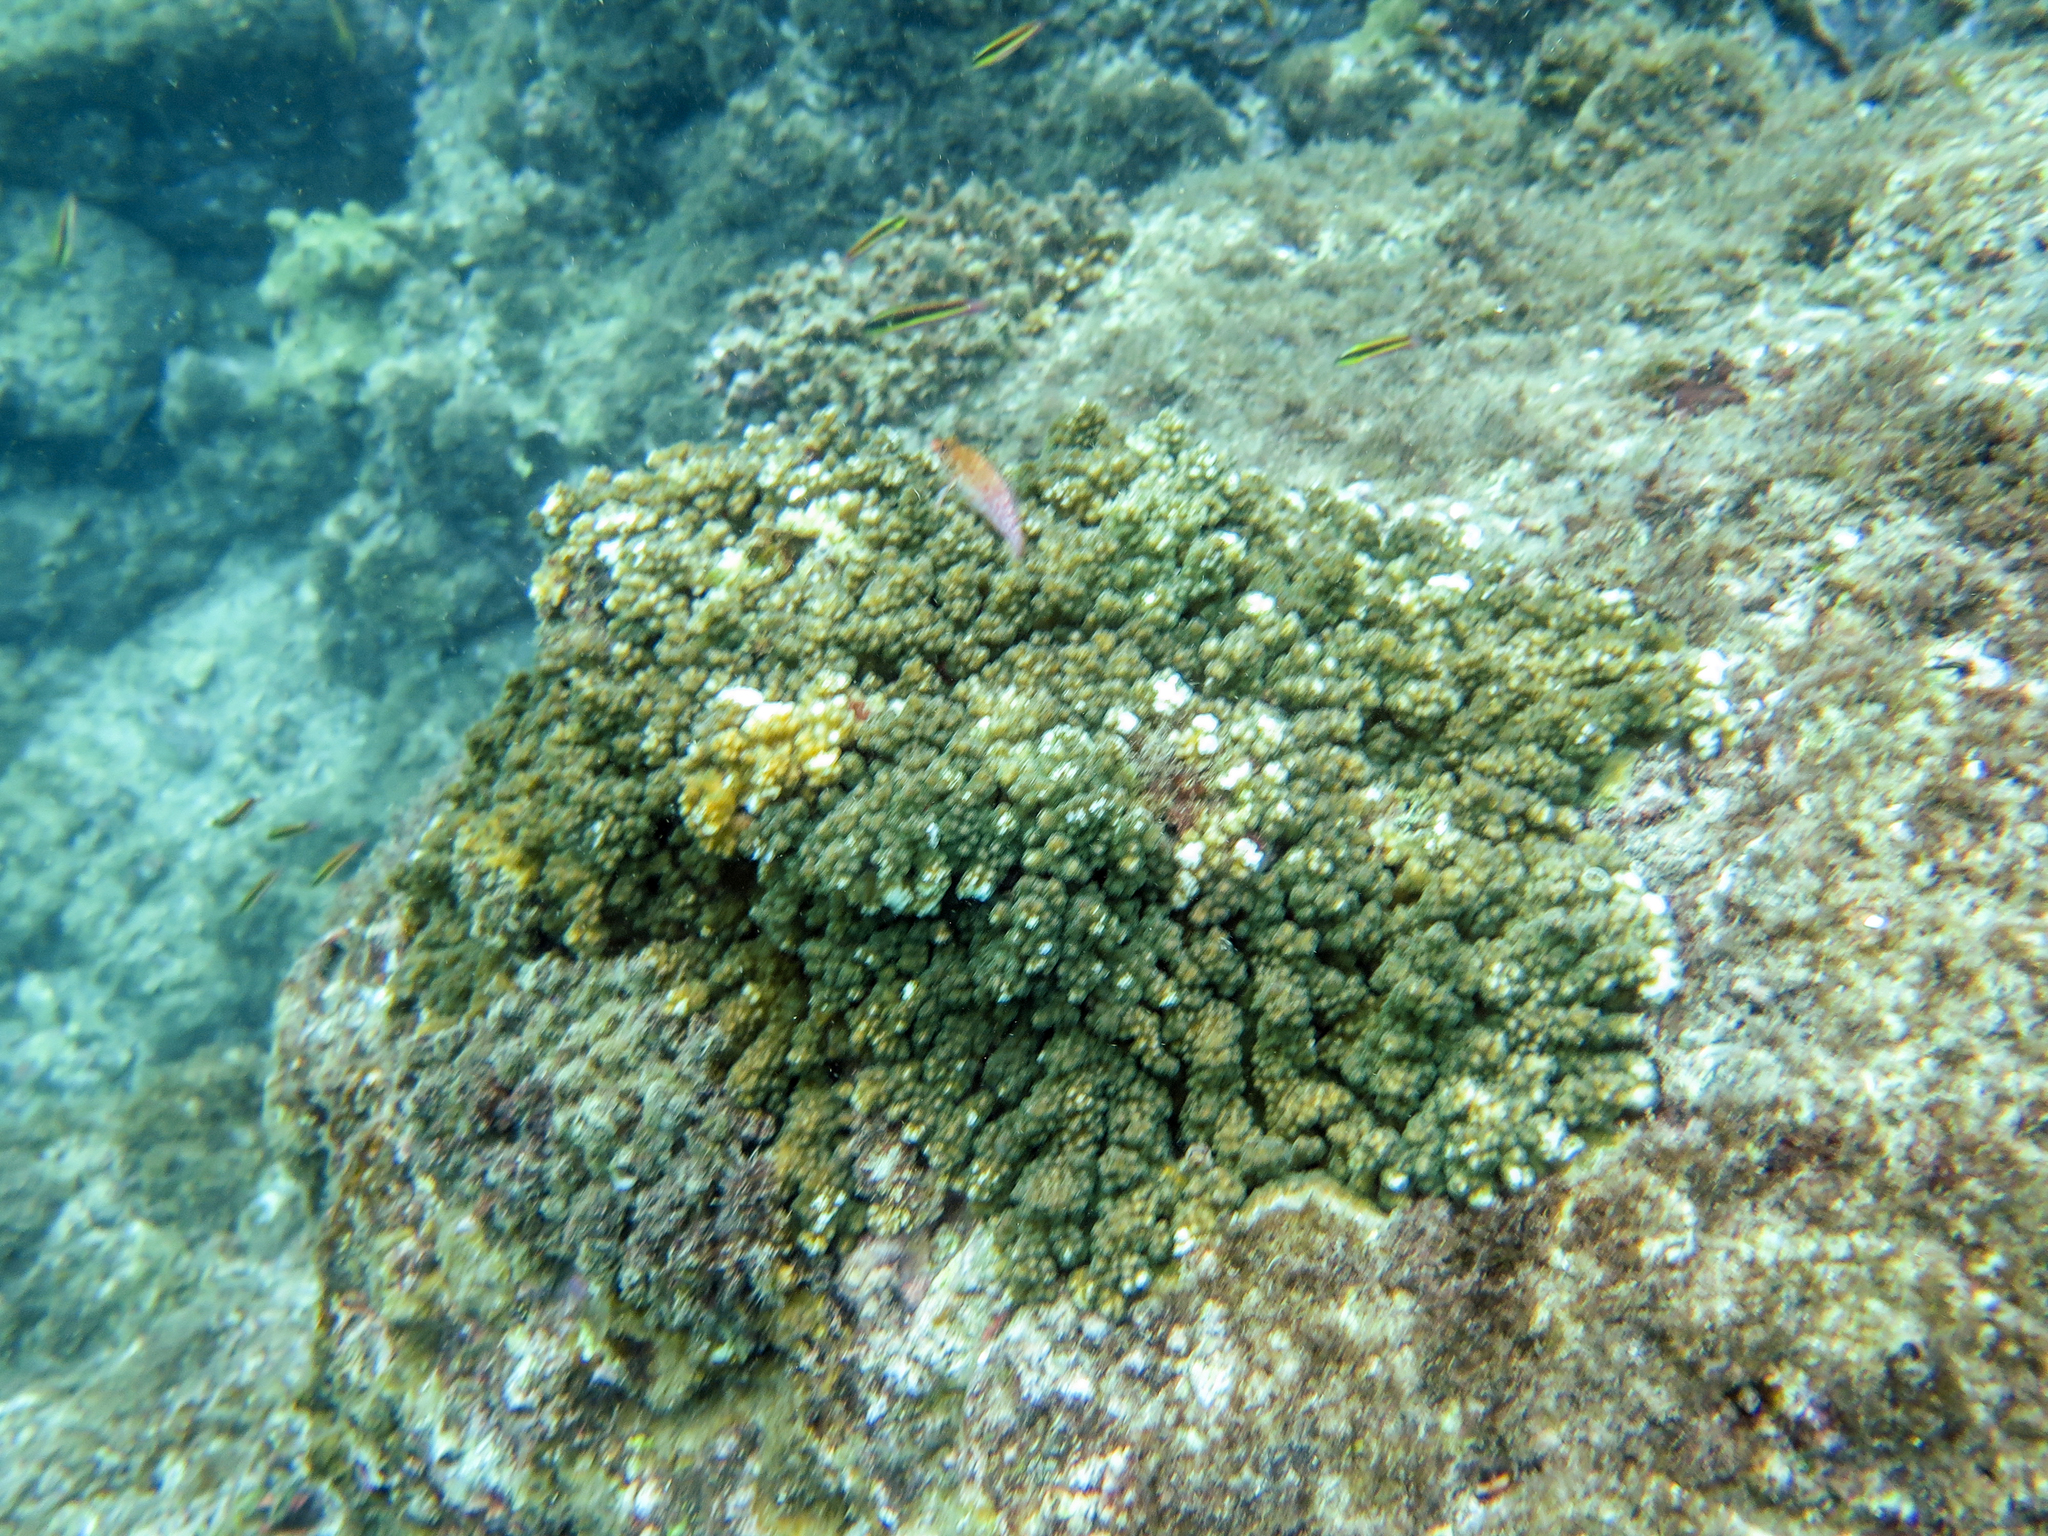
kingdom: Animalia
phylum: Chordata
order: Perciformes
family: Cirrhitidae
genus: Cirrhitichthys
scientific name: Cirrhitichthys oxycephalus
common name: Spotted hawkfish
